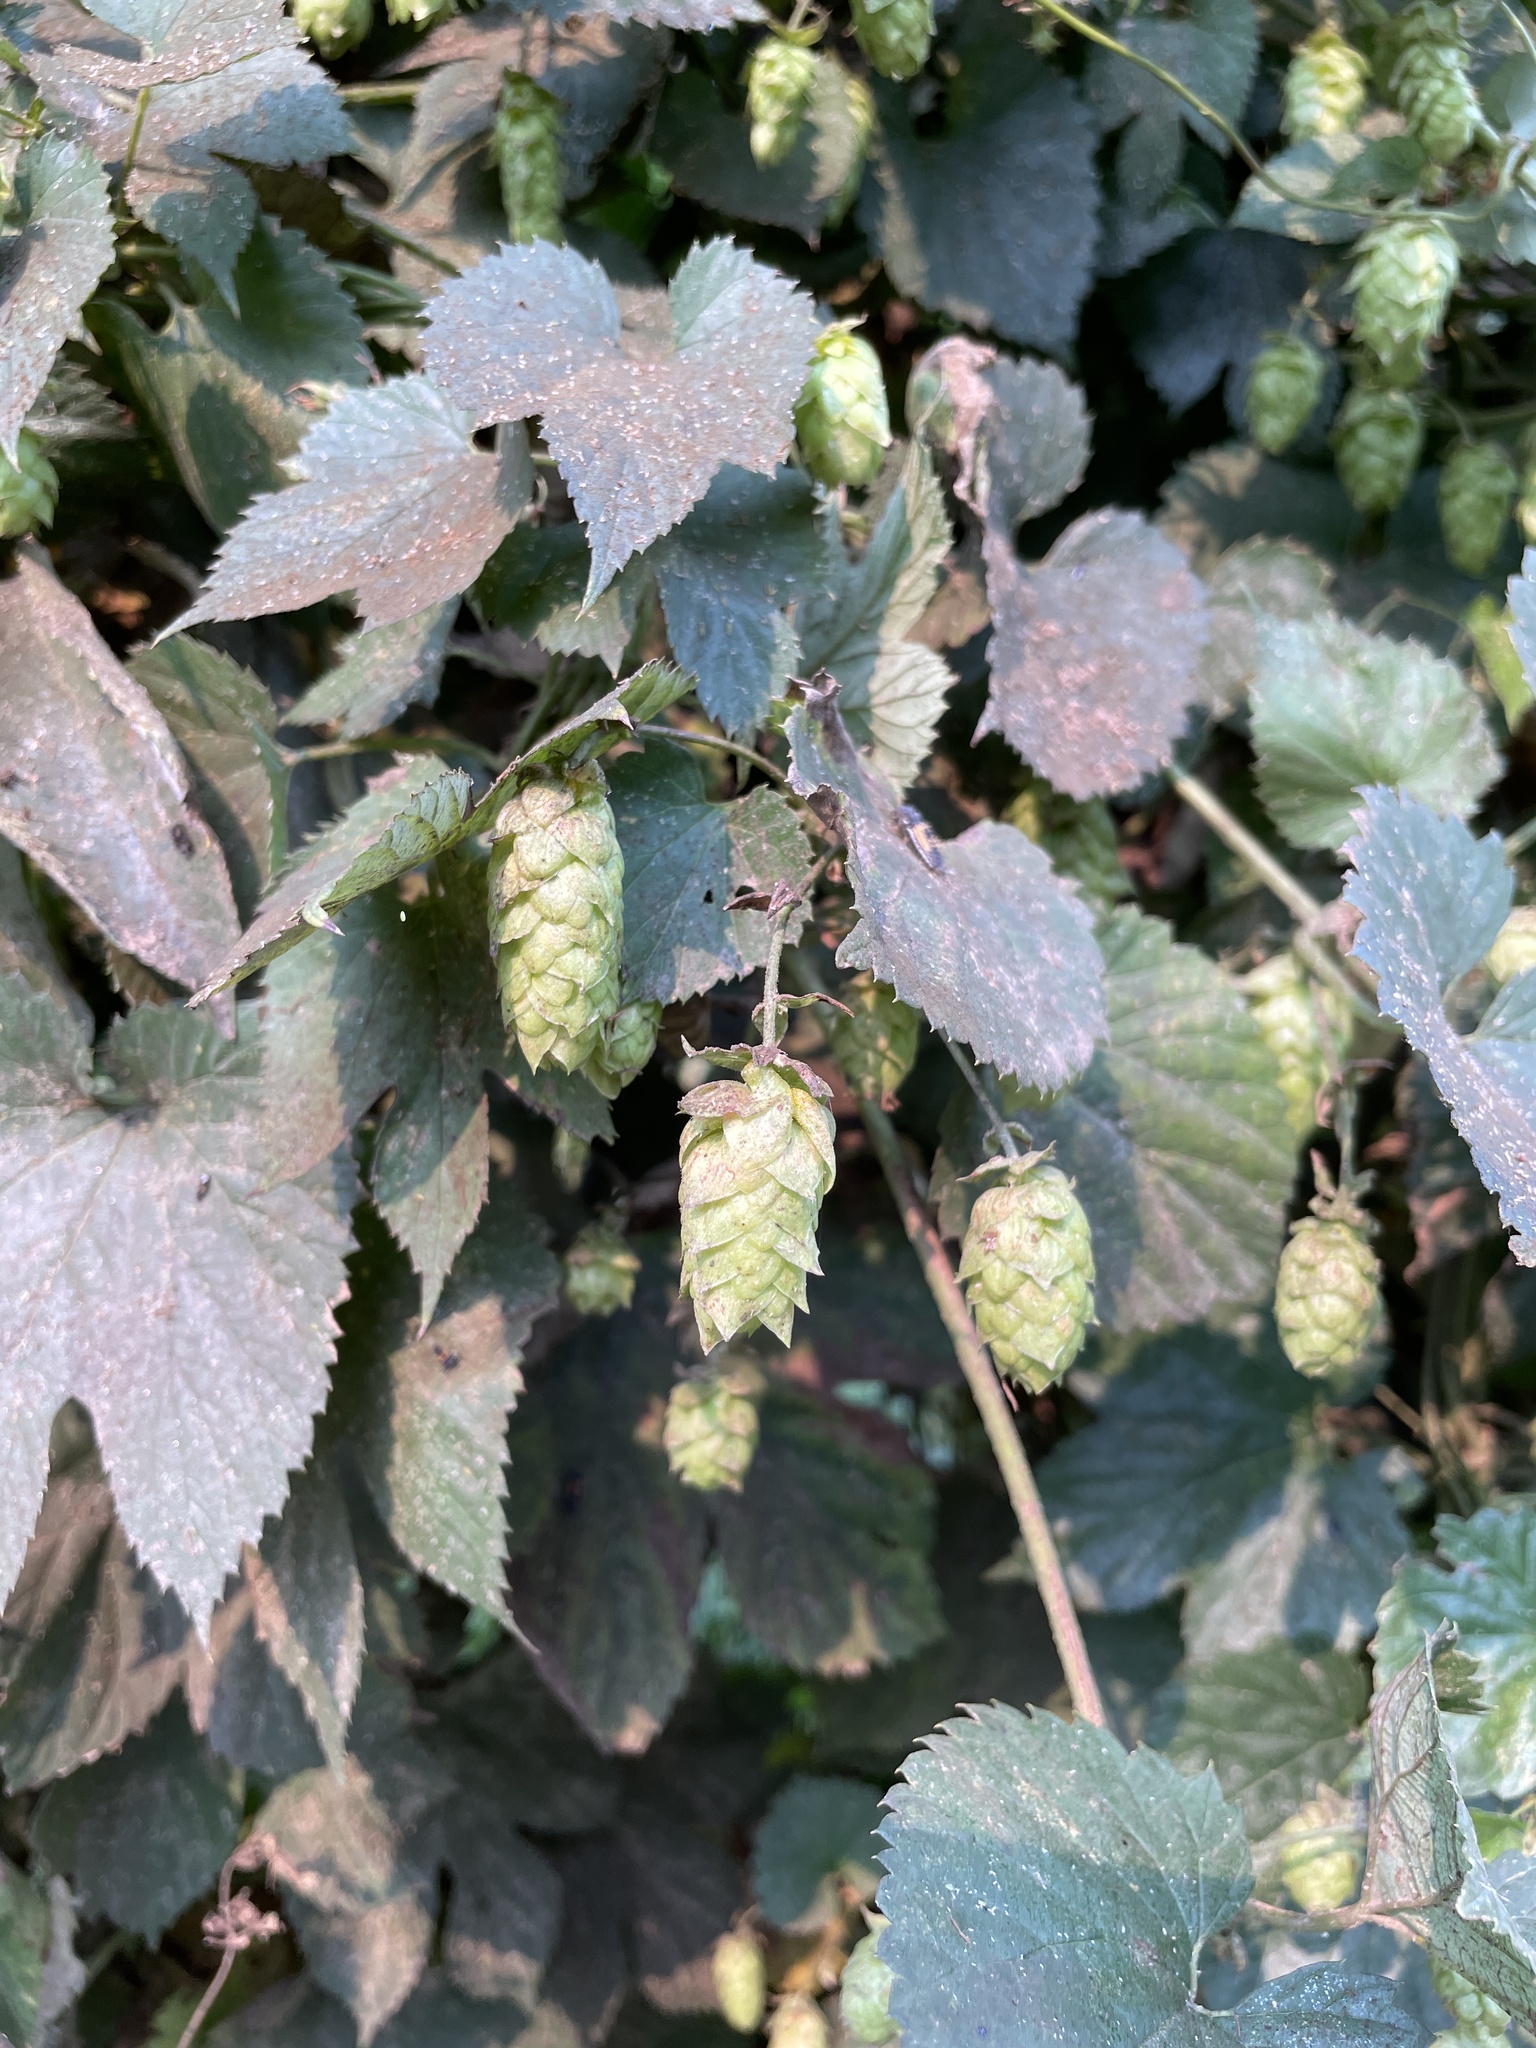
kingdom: Plantae
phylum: Tracheophyta
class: Magnoliopsida
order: Rosales
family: Cannabaceae
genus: Humulus
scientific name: Humulus lupulus
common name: Hop
